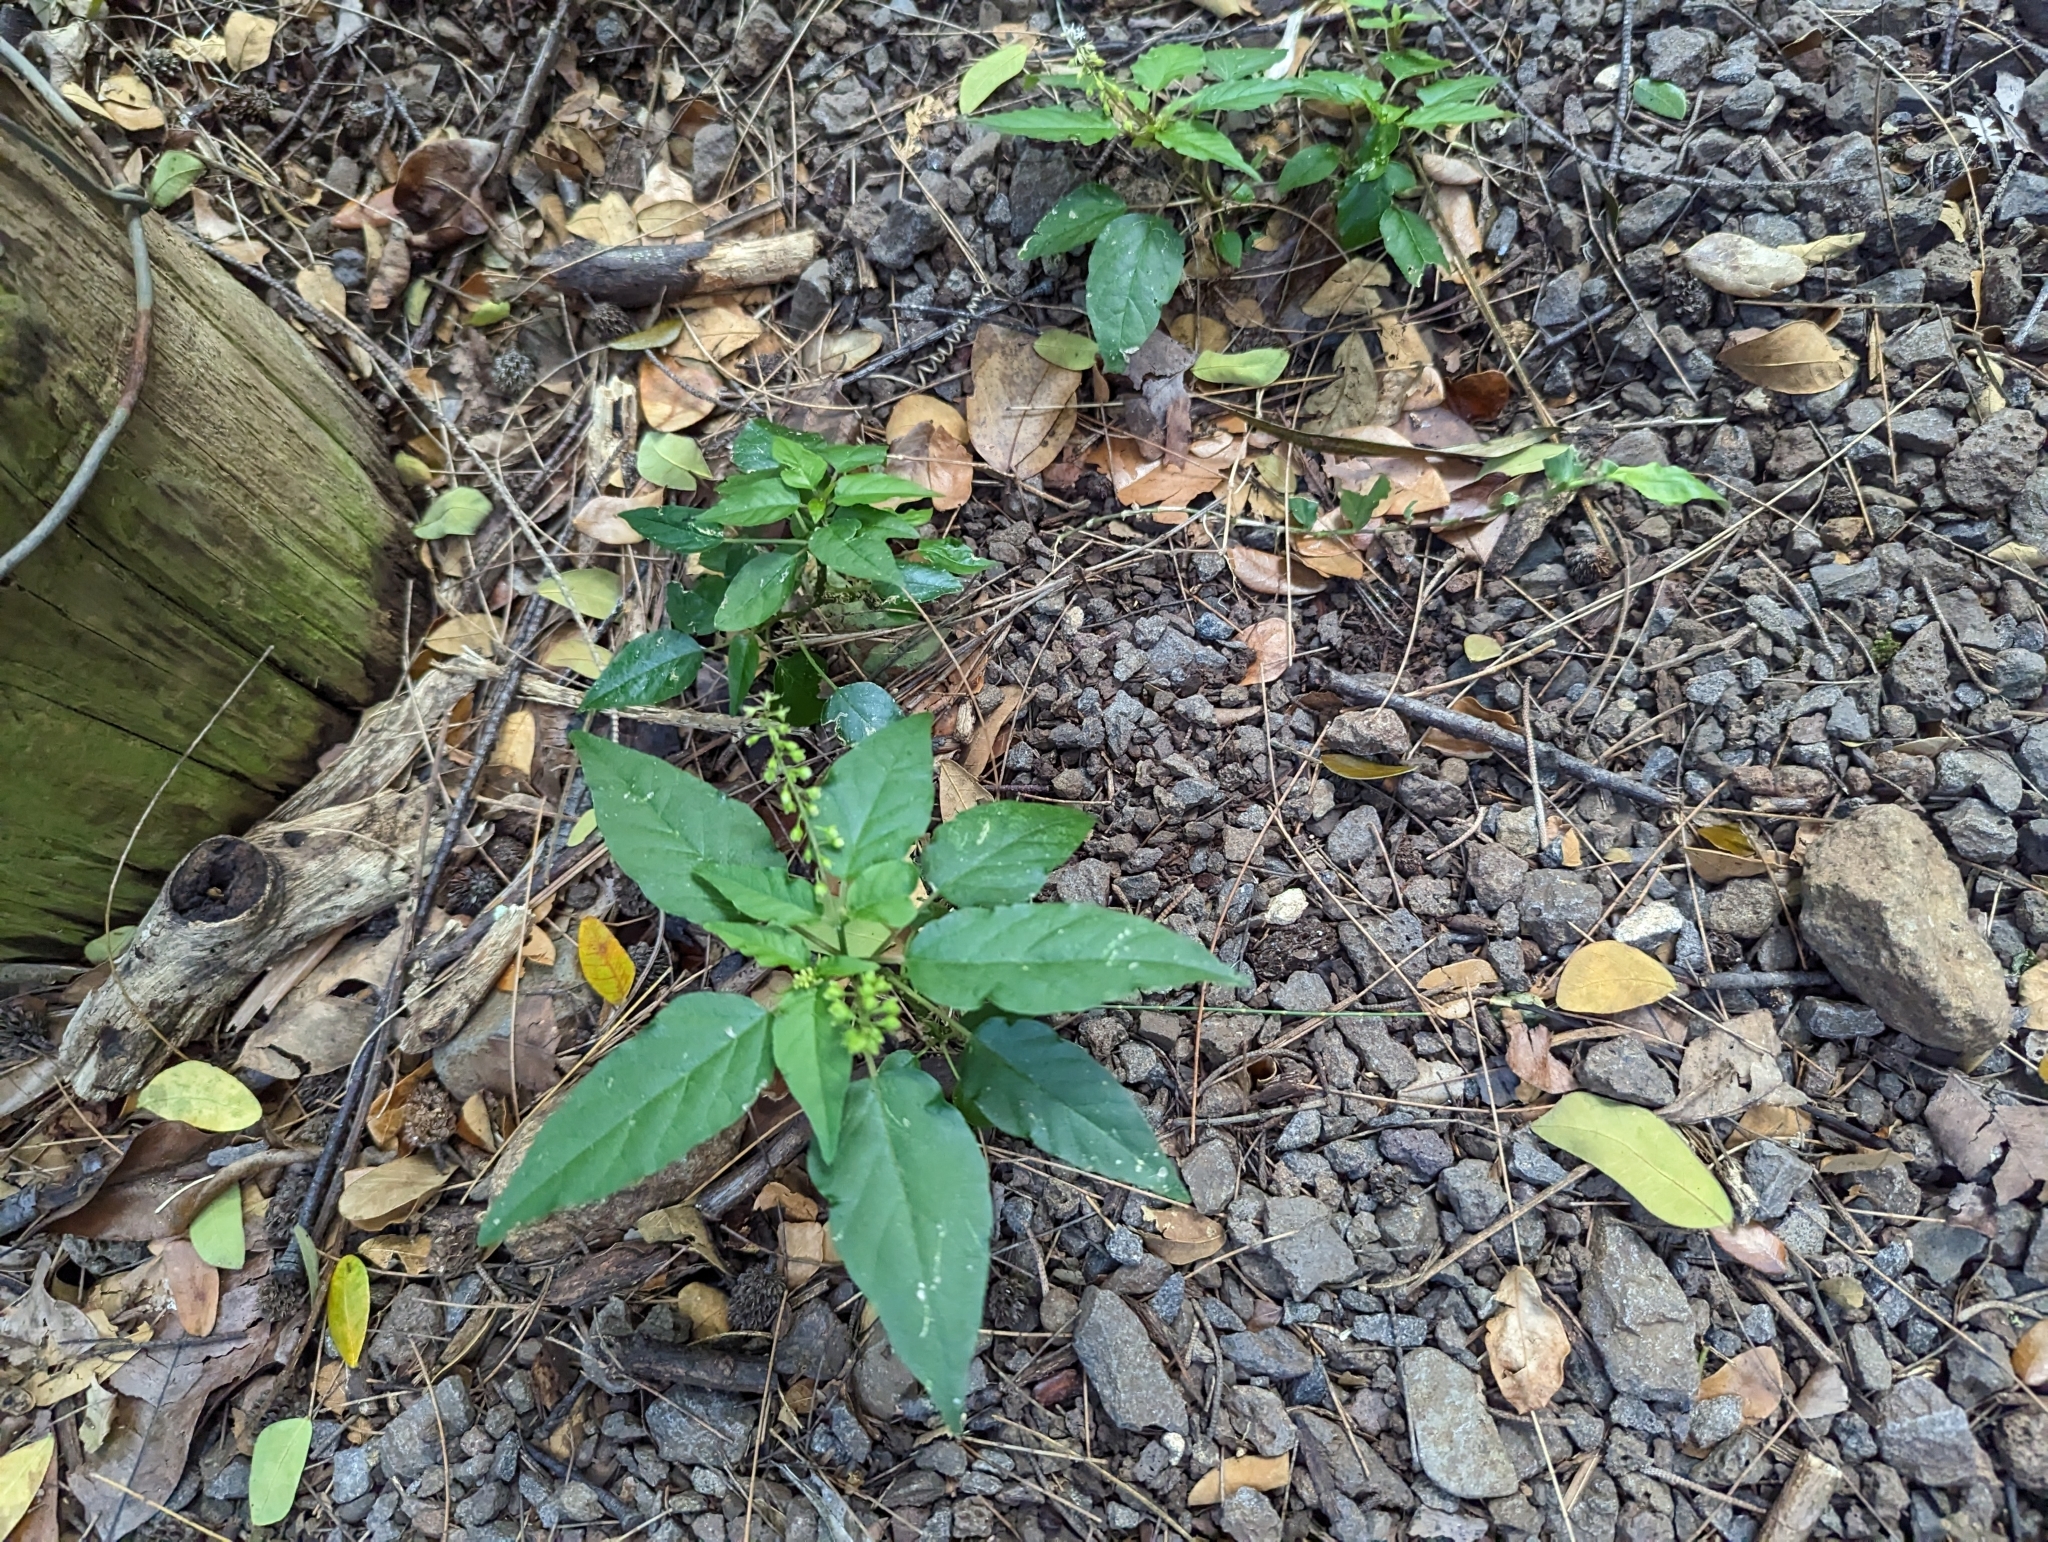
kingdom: Plantae
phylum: Tracheophyta
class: Magnoliopsida
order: Caryophyllales
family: Phytolaccaceae
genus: Rivina
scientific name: Rivina humilis
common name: Rougeplant
